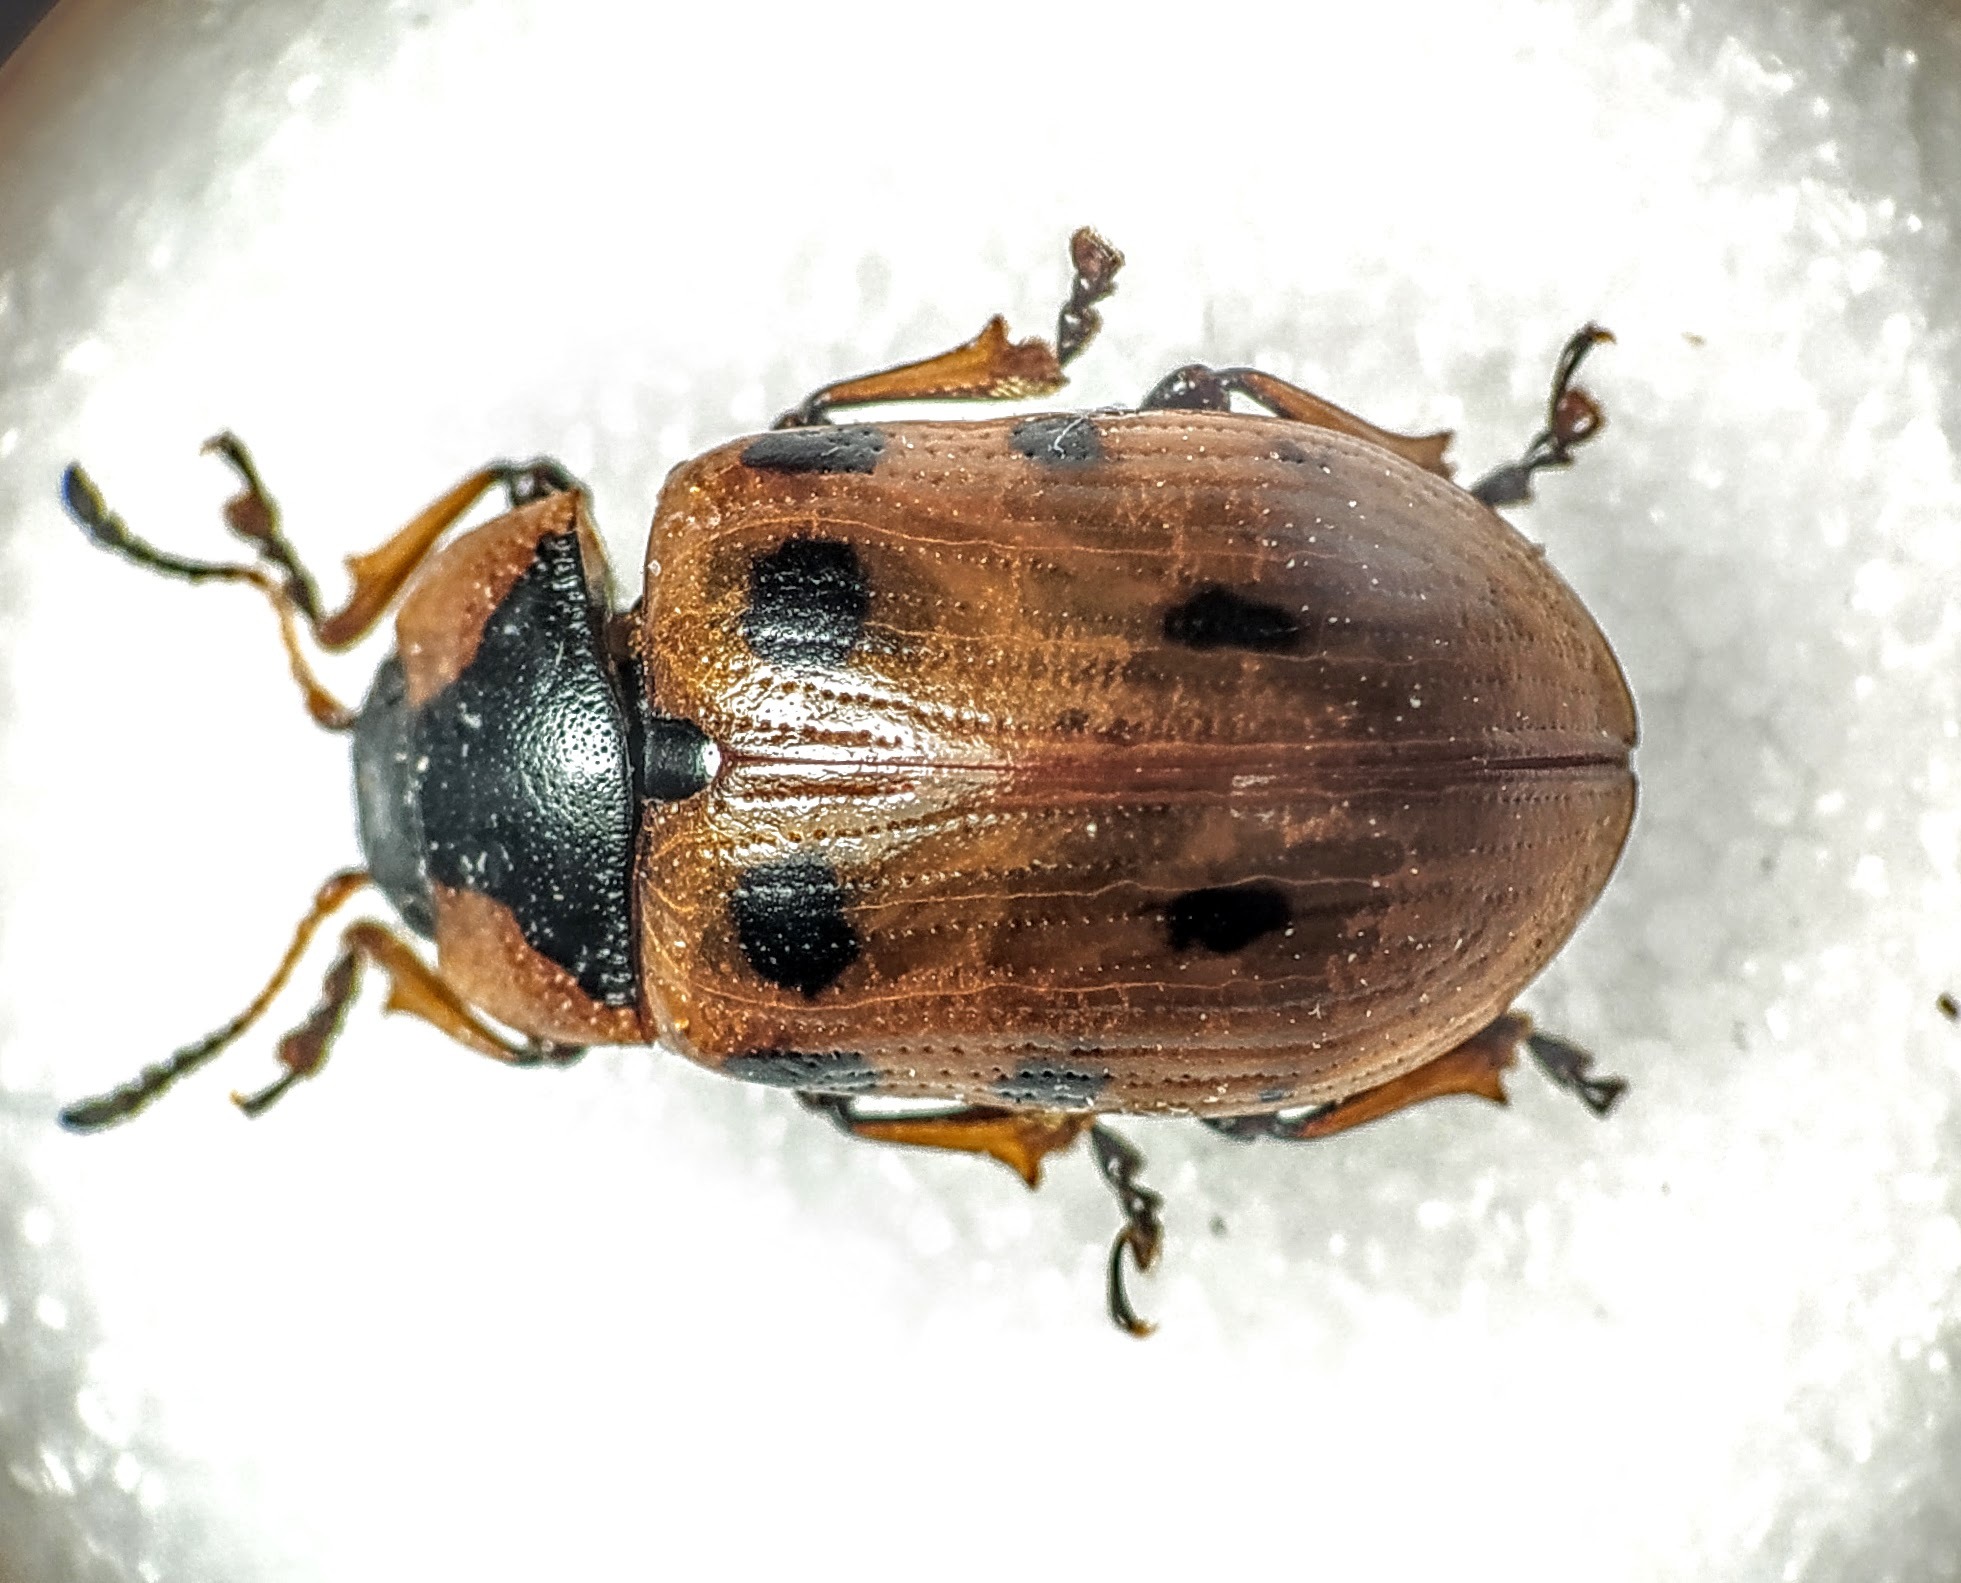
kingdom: Animalia
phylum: Arthropoda
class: Insecta
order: Coleoptera
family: Chrysomelidae
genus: Gonioctena
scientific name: Gonioctena linnaeana
